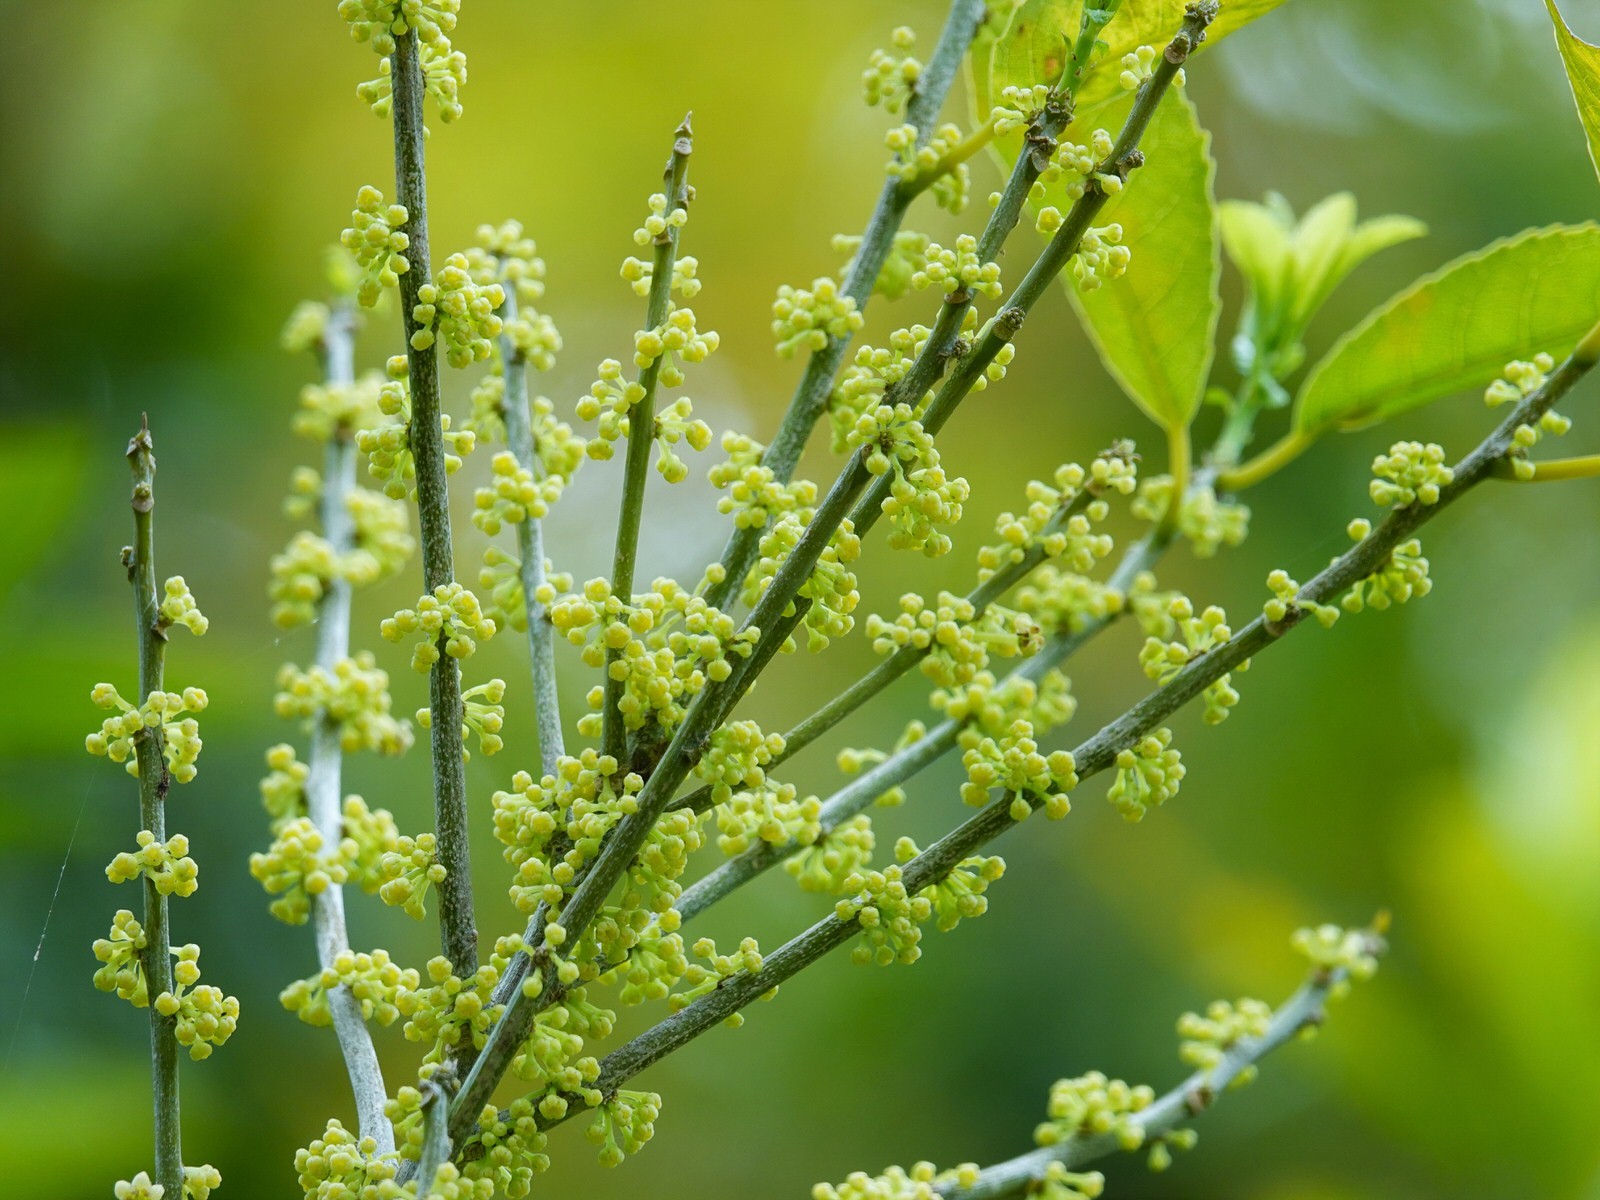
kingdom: Plantae
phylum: Tracheophyta
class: Magnoliopsida
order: Malpighiales
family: Violaceae
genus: Melicytus
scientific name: Melicytus ramiflorus
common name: Mahoe
